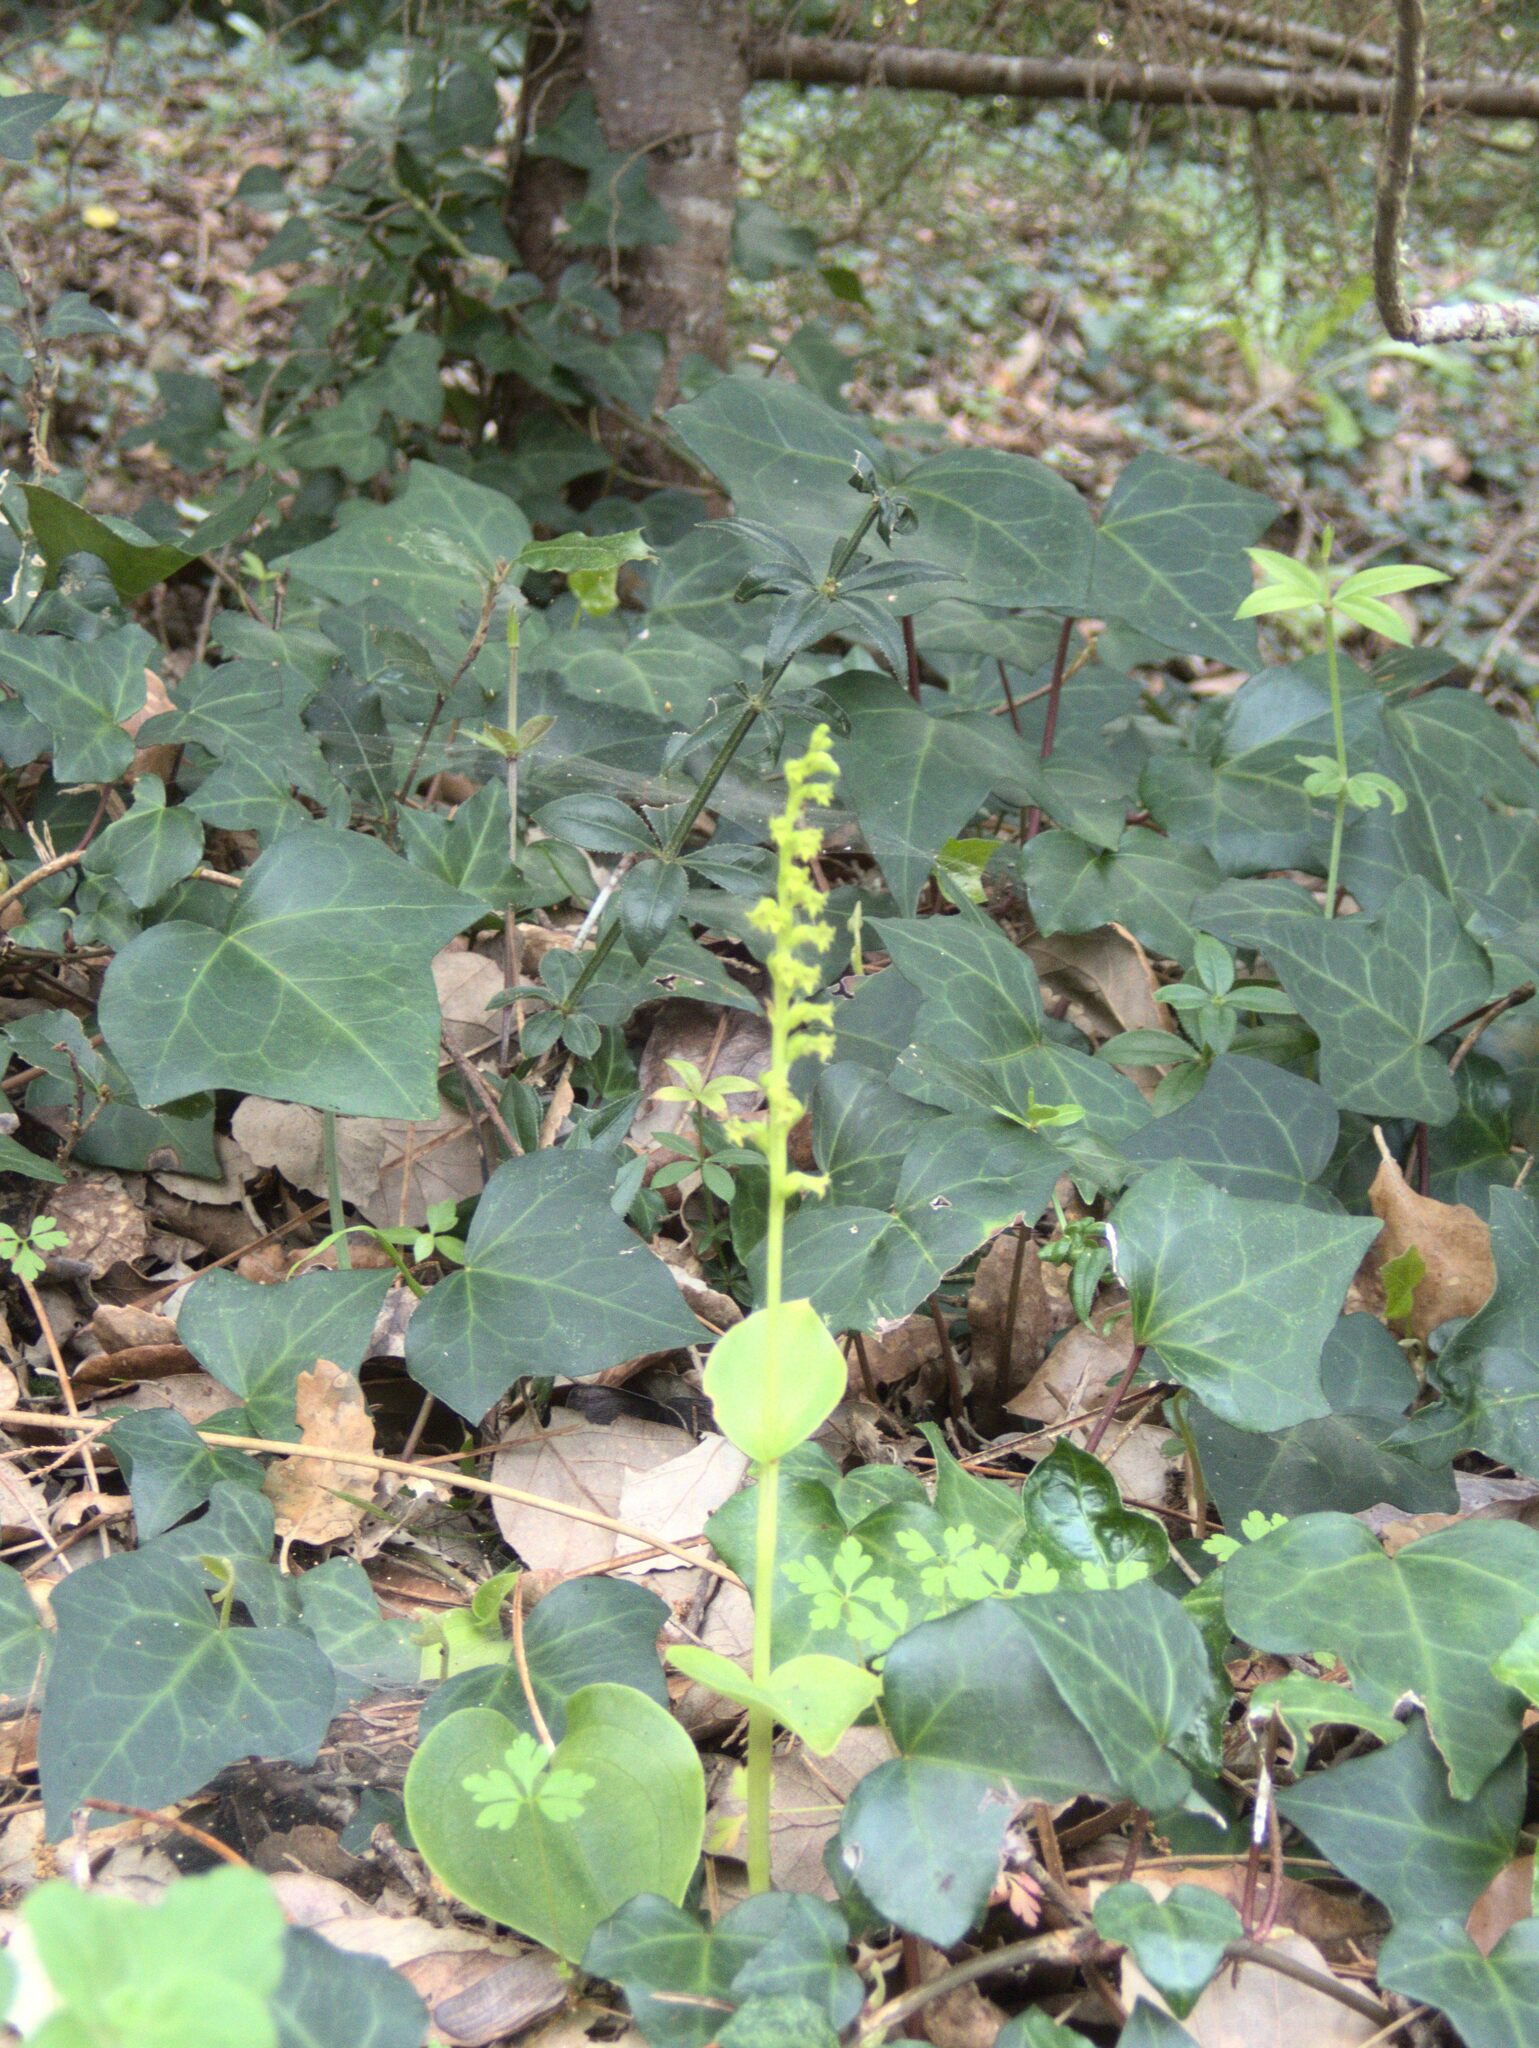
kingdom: Plantae
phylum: Tracheophyta
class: Liliopsida
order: Asparagales
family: Orchidaceae
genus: Gennaria
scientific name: Gennaria diphylla
